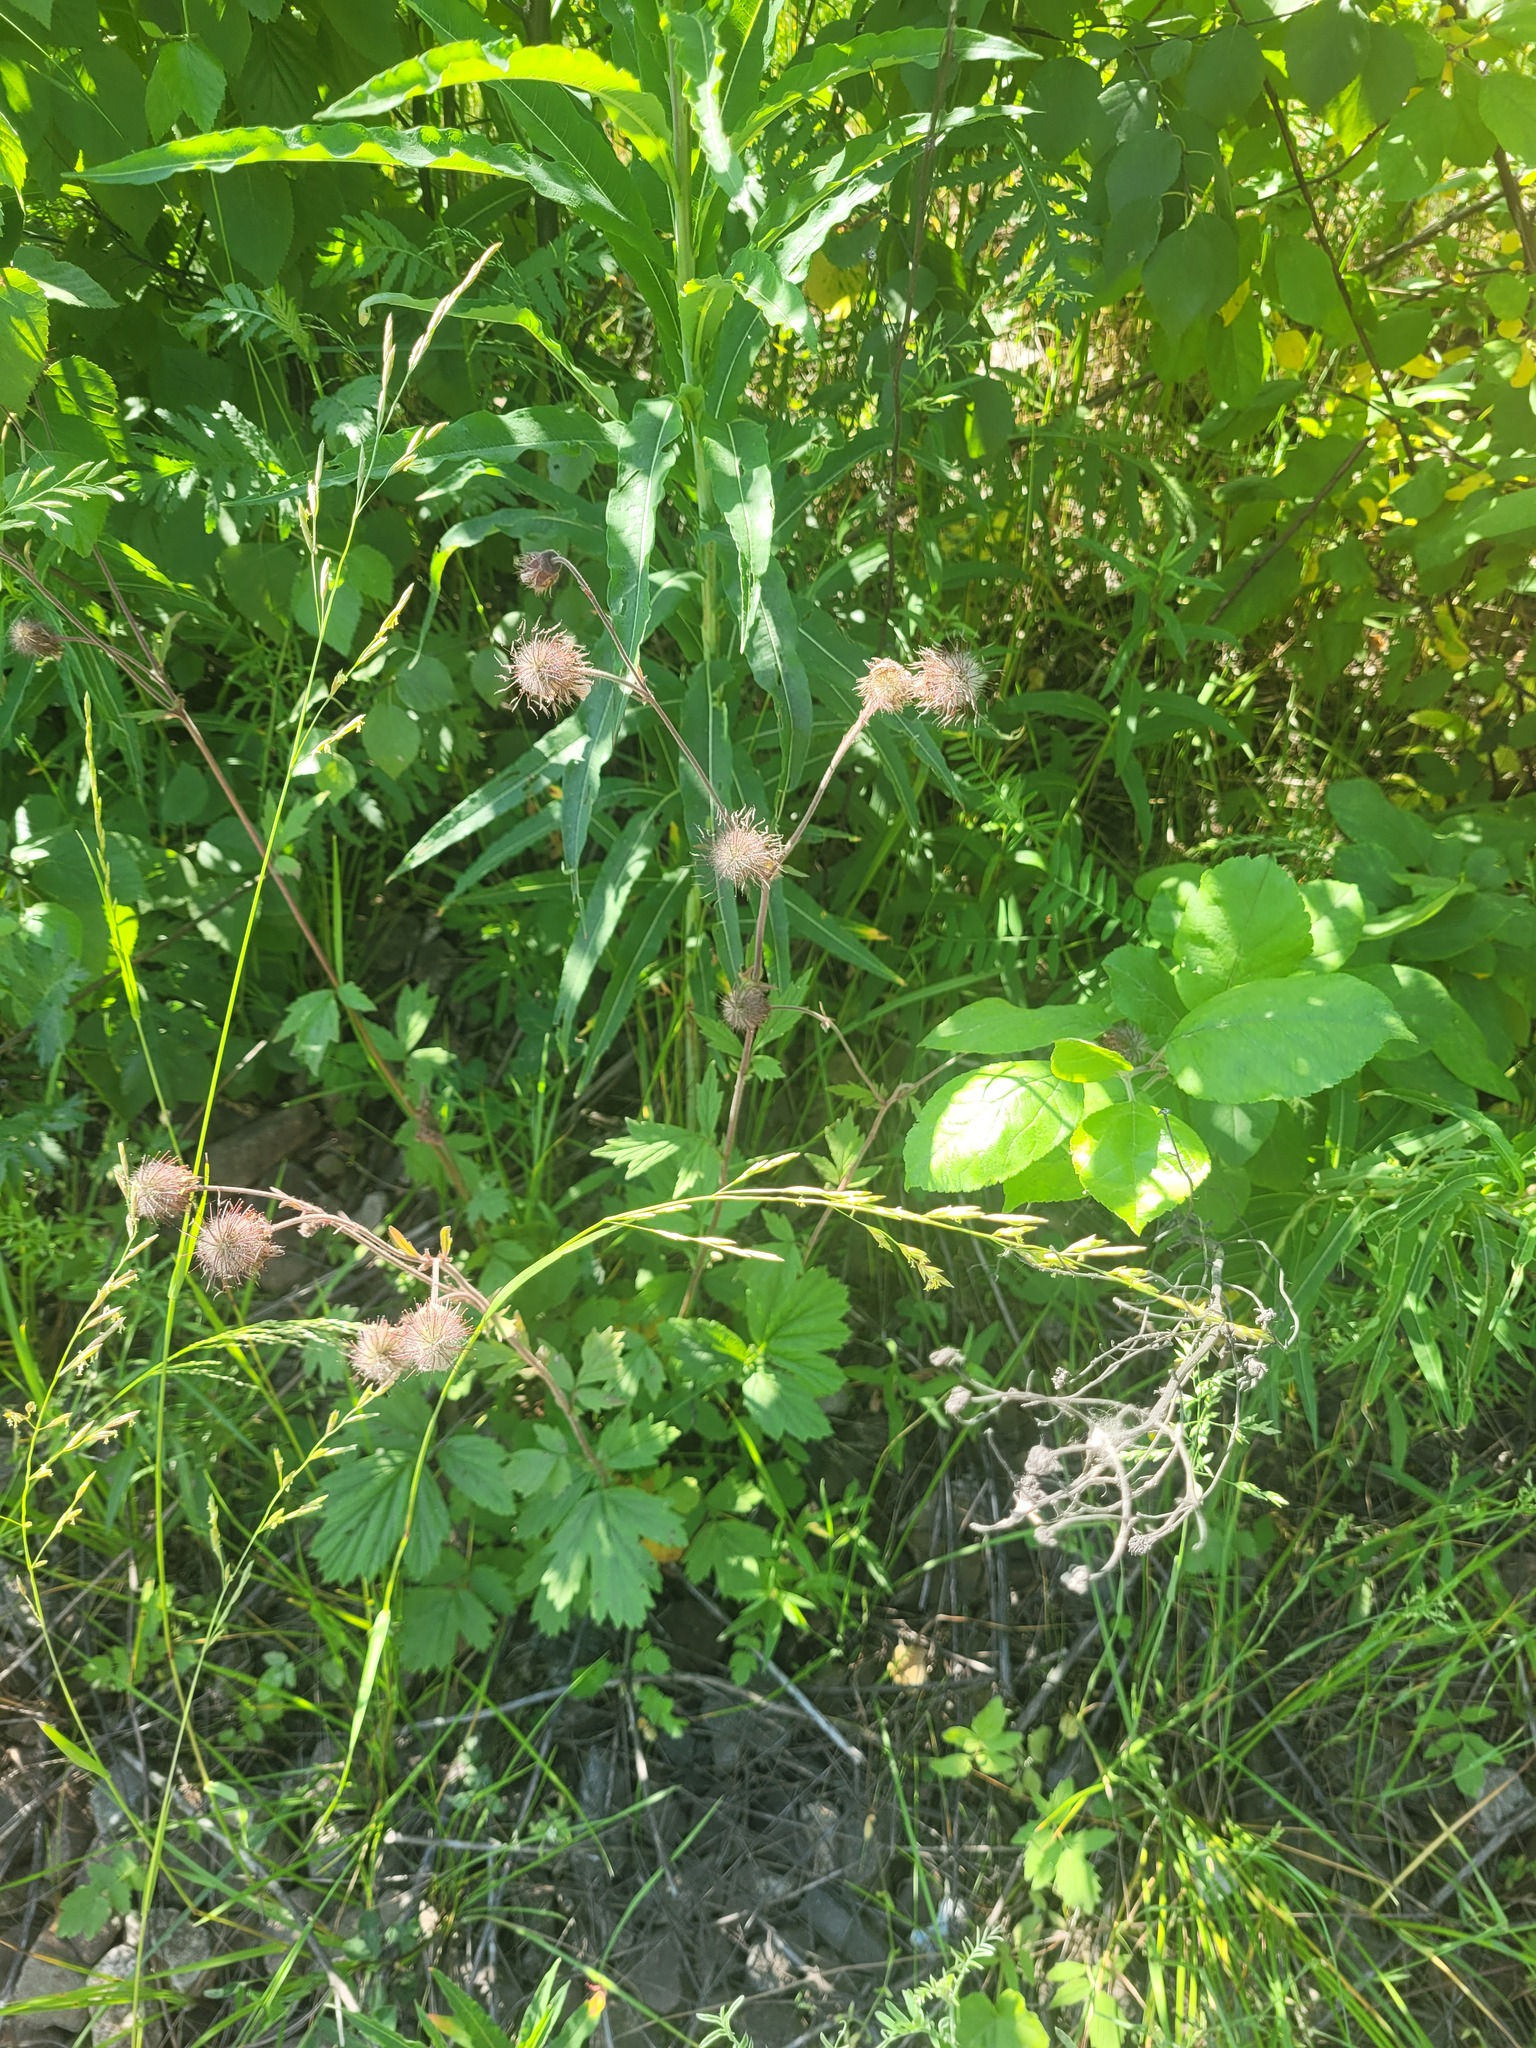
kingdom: Plantae
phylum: Tracheophyta
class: Magnoliopsida
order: Rosales
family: Rosaceae
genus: Geum
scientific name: Geum rivale
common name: Water avens
